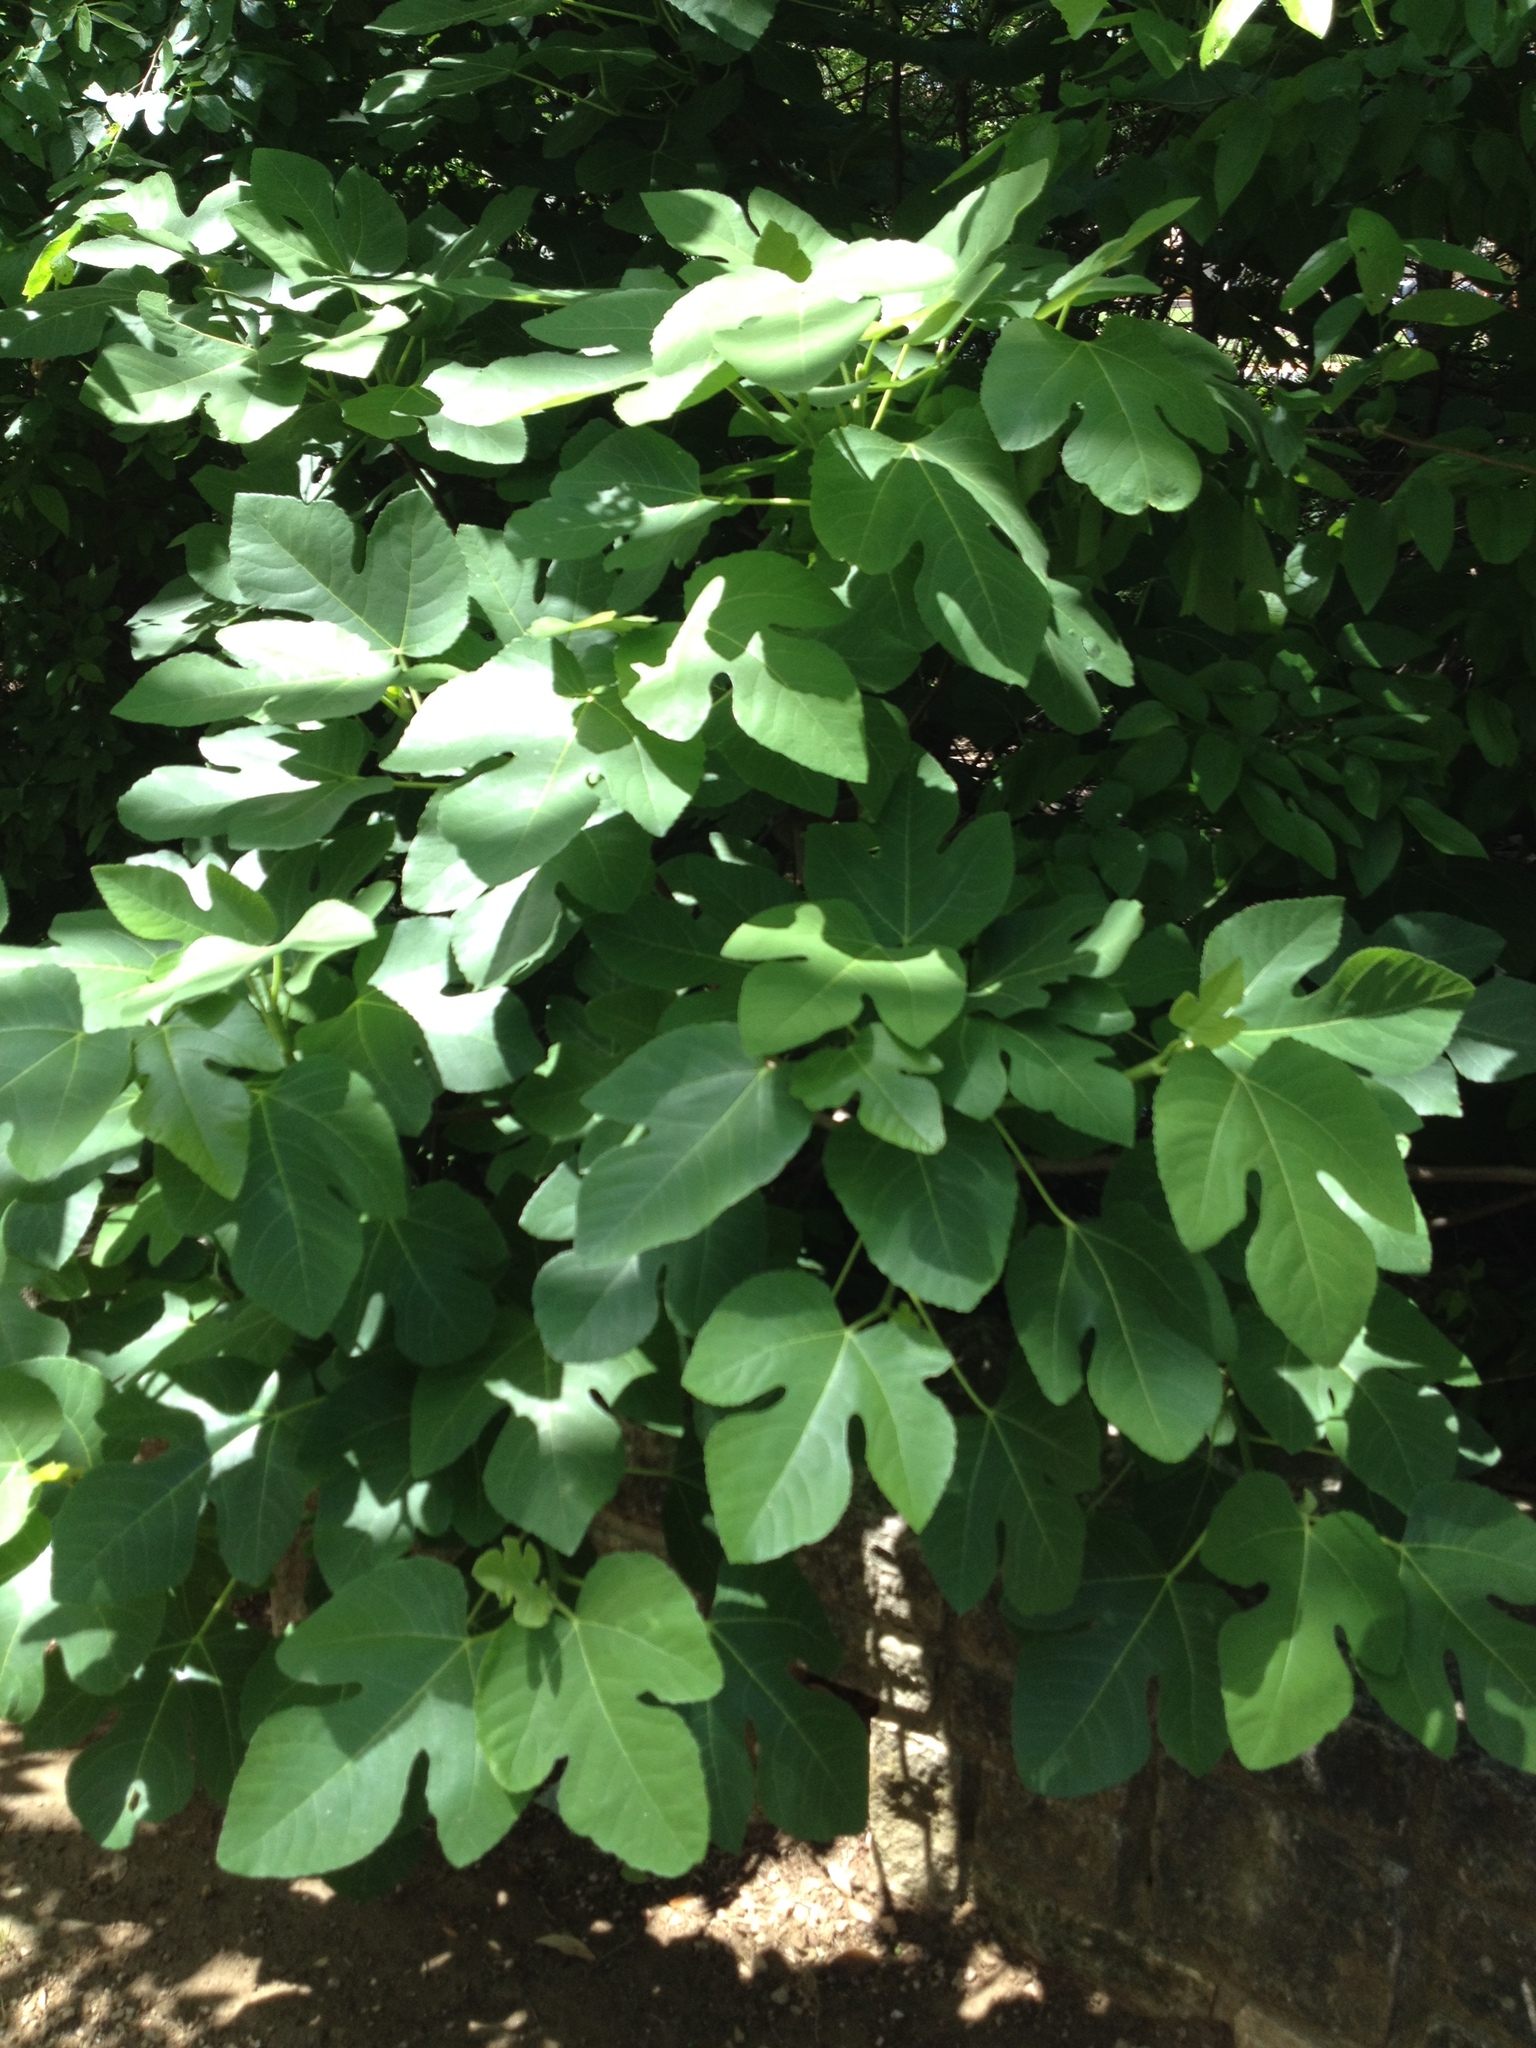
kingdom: Plantae
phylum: Tracheophyta
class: Magnoliopsida
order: Rosales
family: Moraceae
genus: Ficus
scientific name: Ficus carica
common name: Fig
